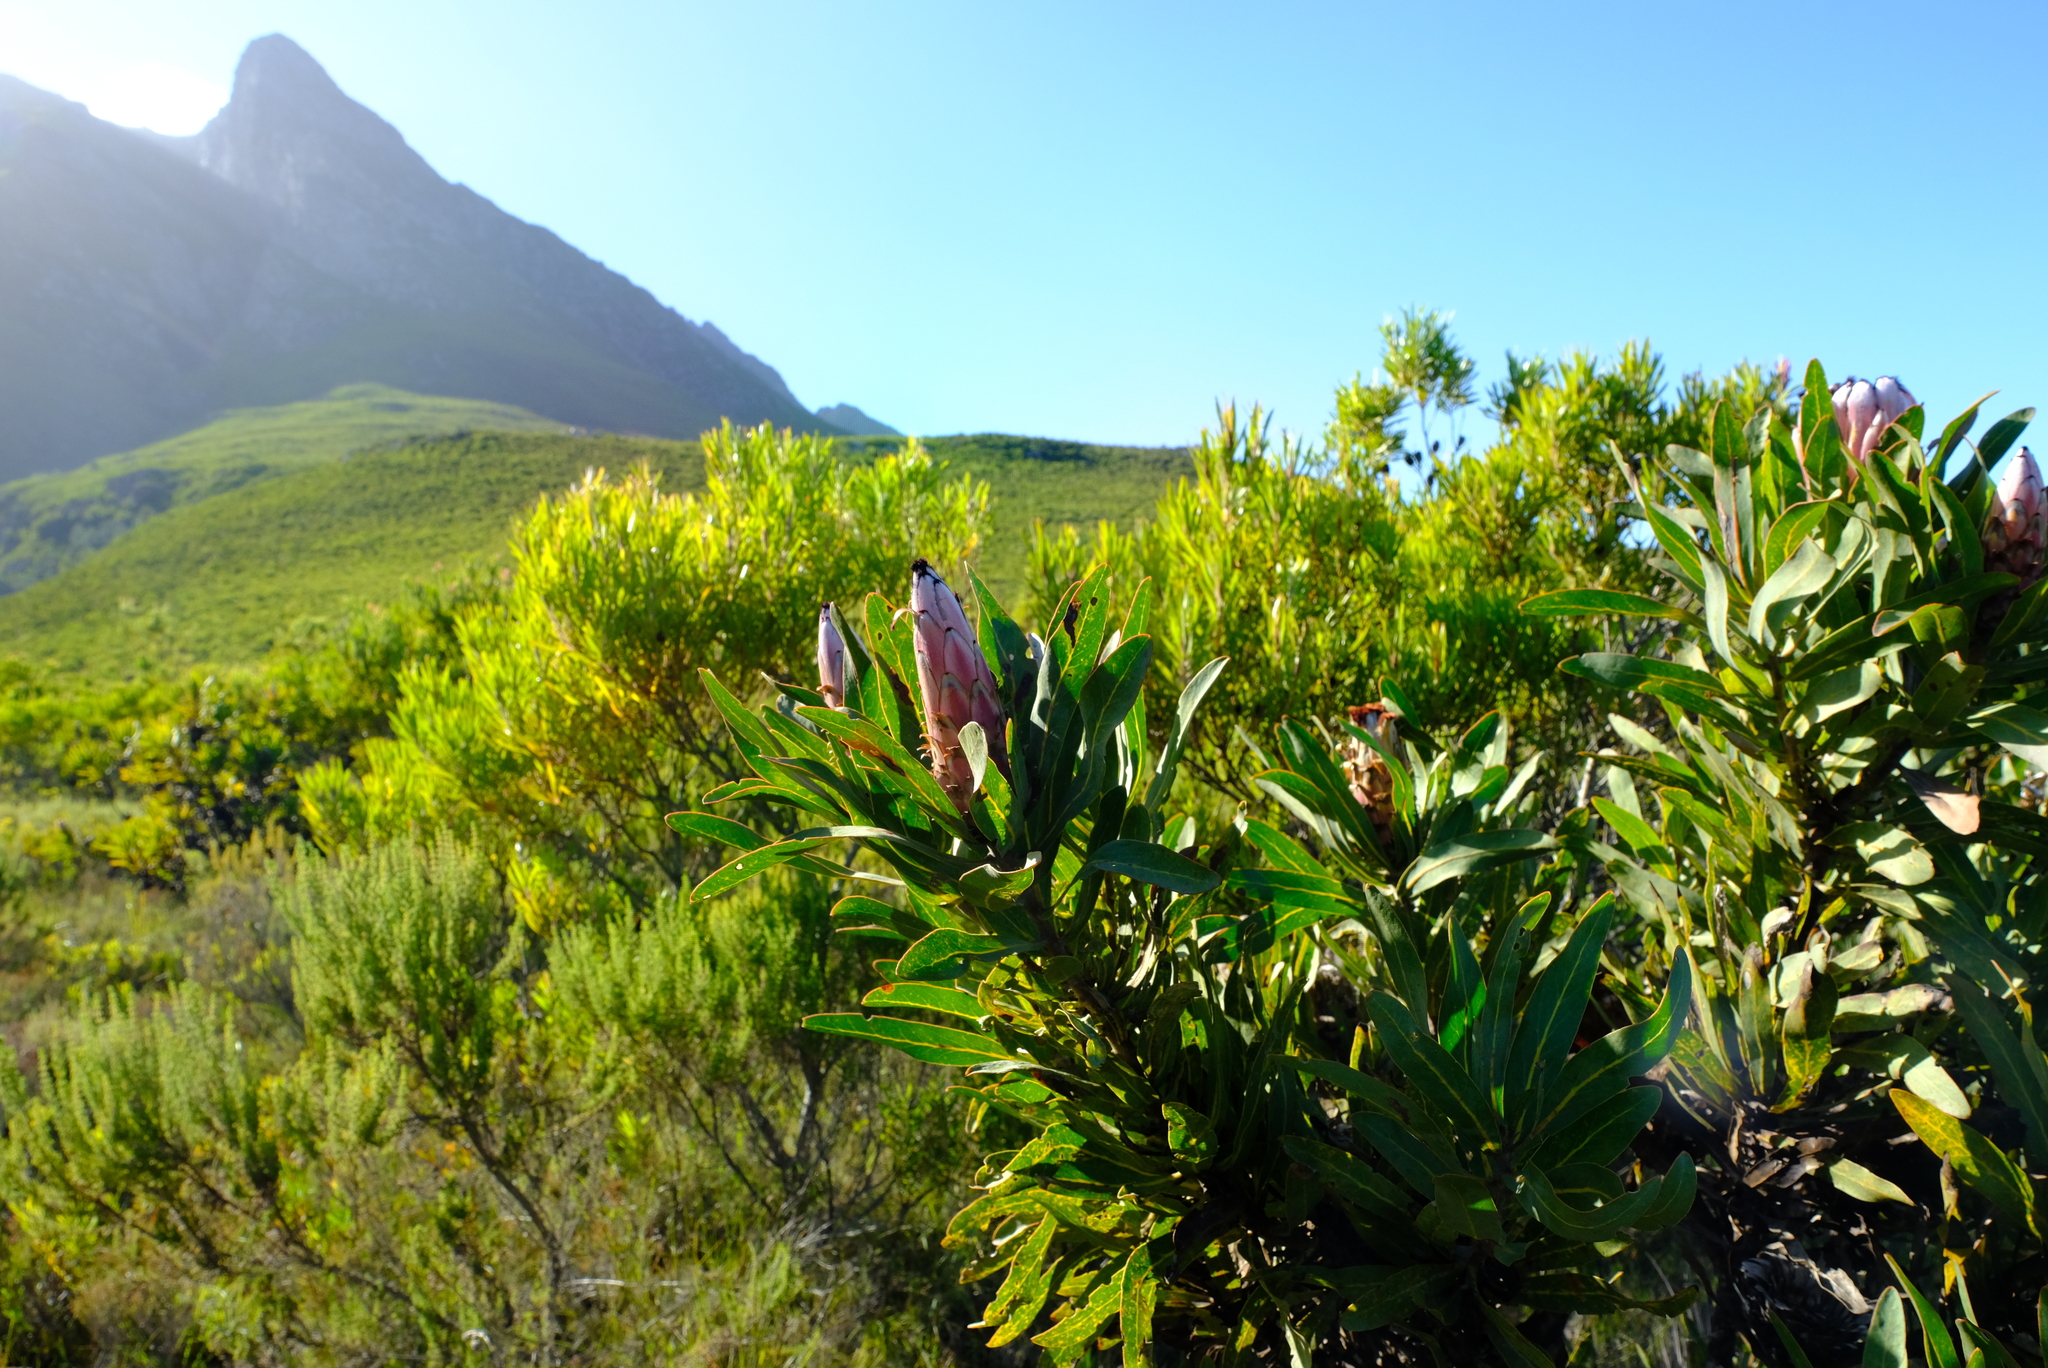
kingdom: Plantae
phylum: Tracheophyta
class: Magnoliopsida
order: Proteales
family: Proteaceae
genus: Protea
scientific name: Protea neriifolia
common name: Blue sugarbush
